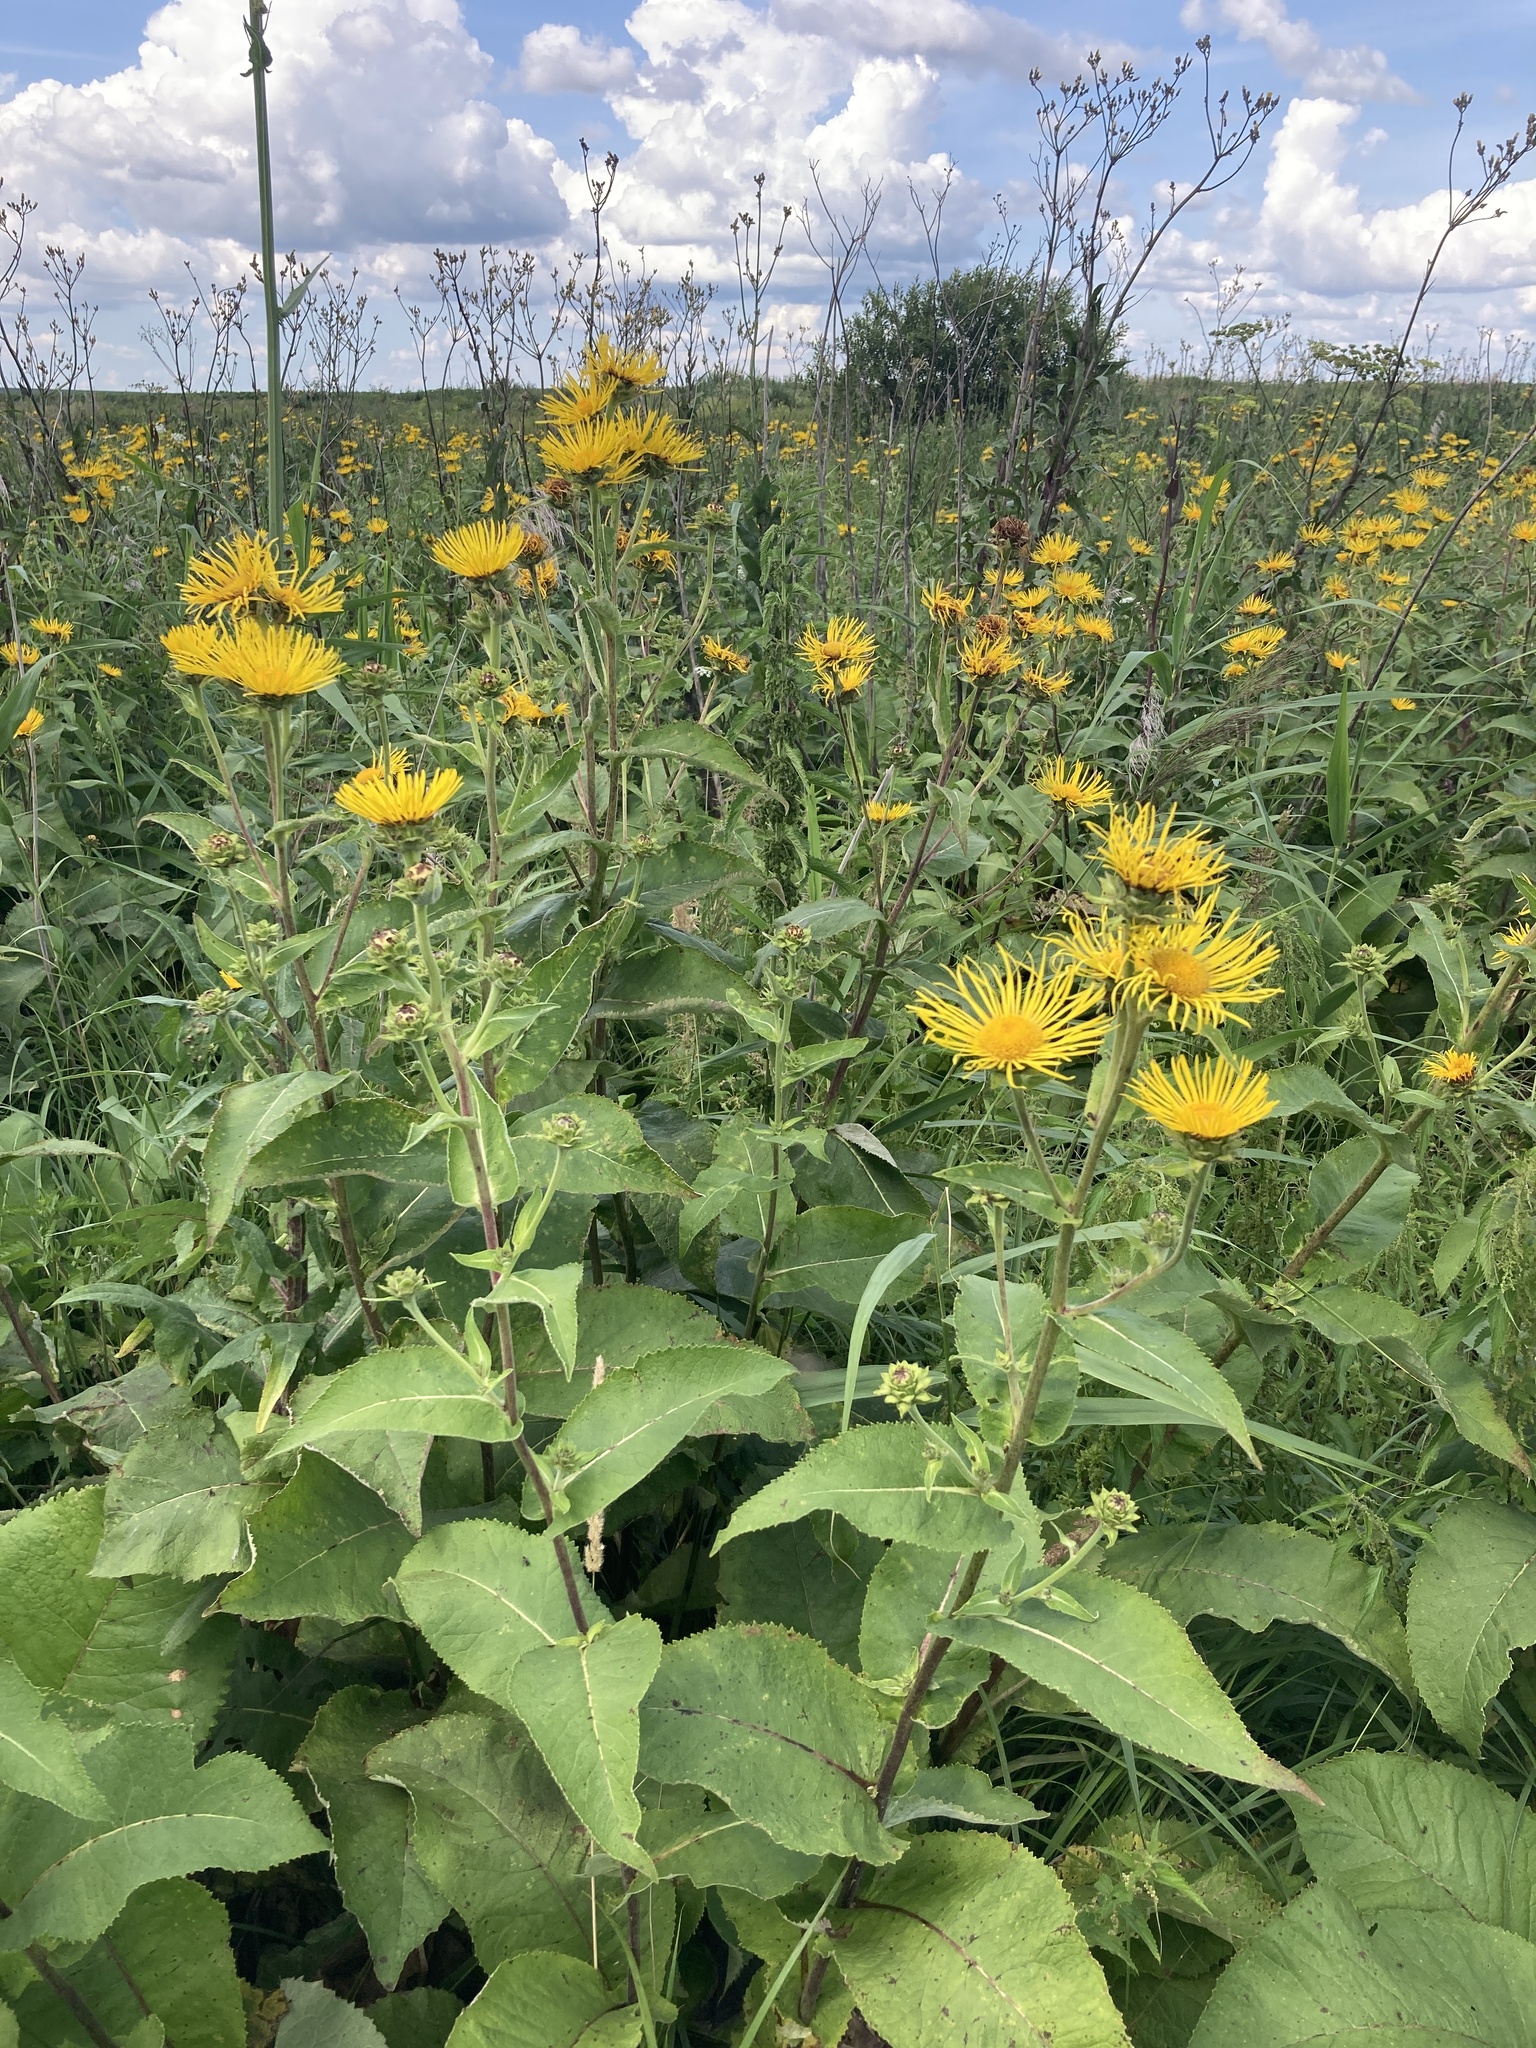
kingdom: Plantae
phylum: Tracheophyta
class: Magnoliopsida
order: Asterales
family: Asteraceae
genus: Inula
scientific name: Inula helenium
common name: Elecampane
